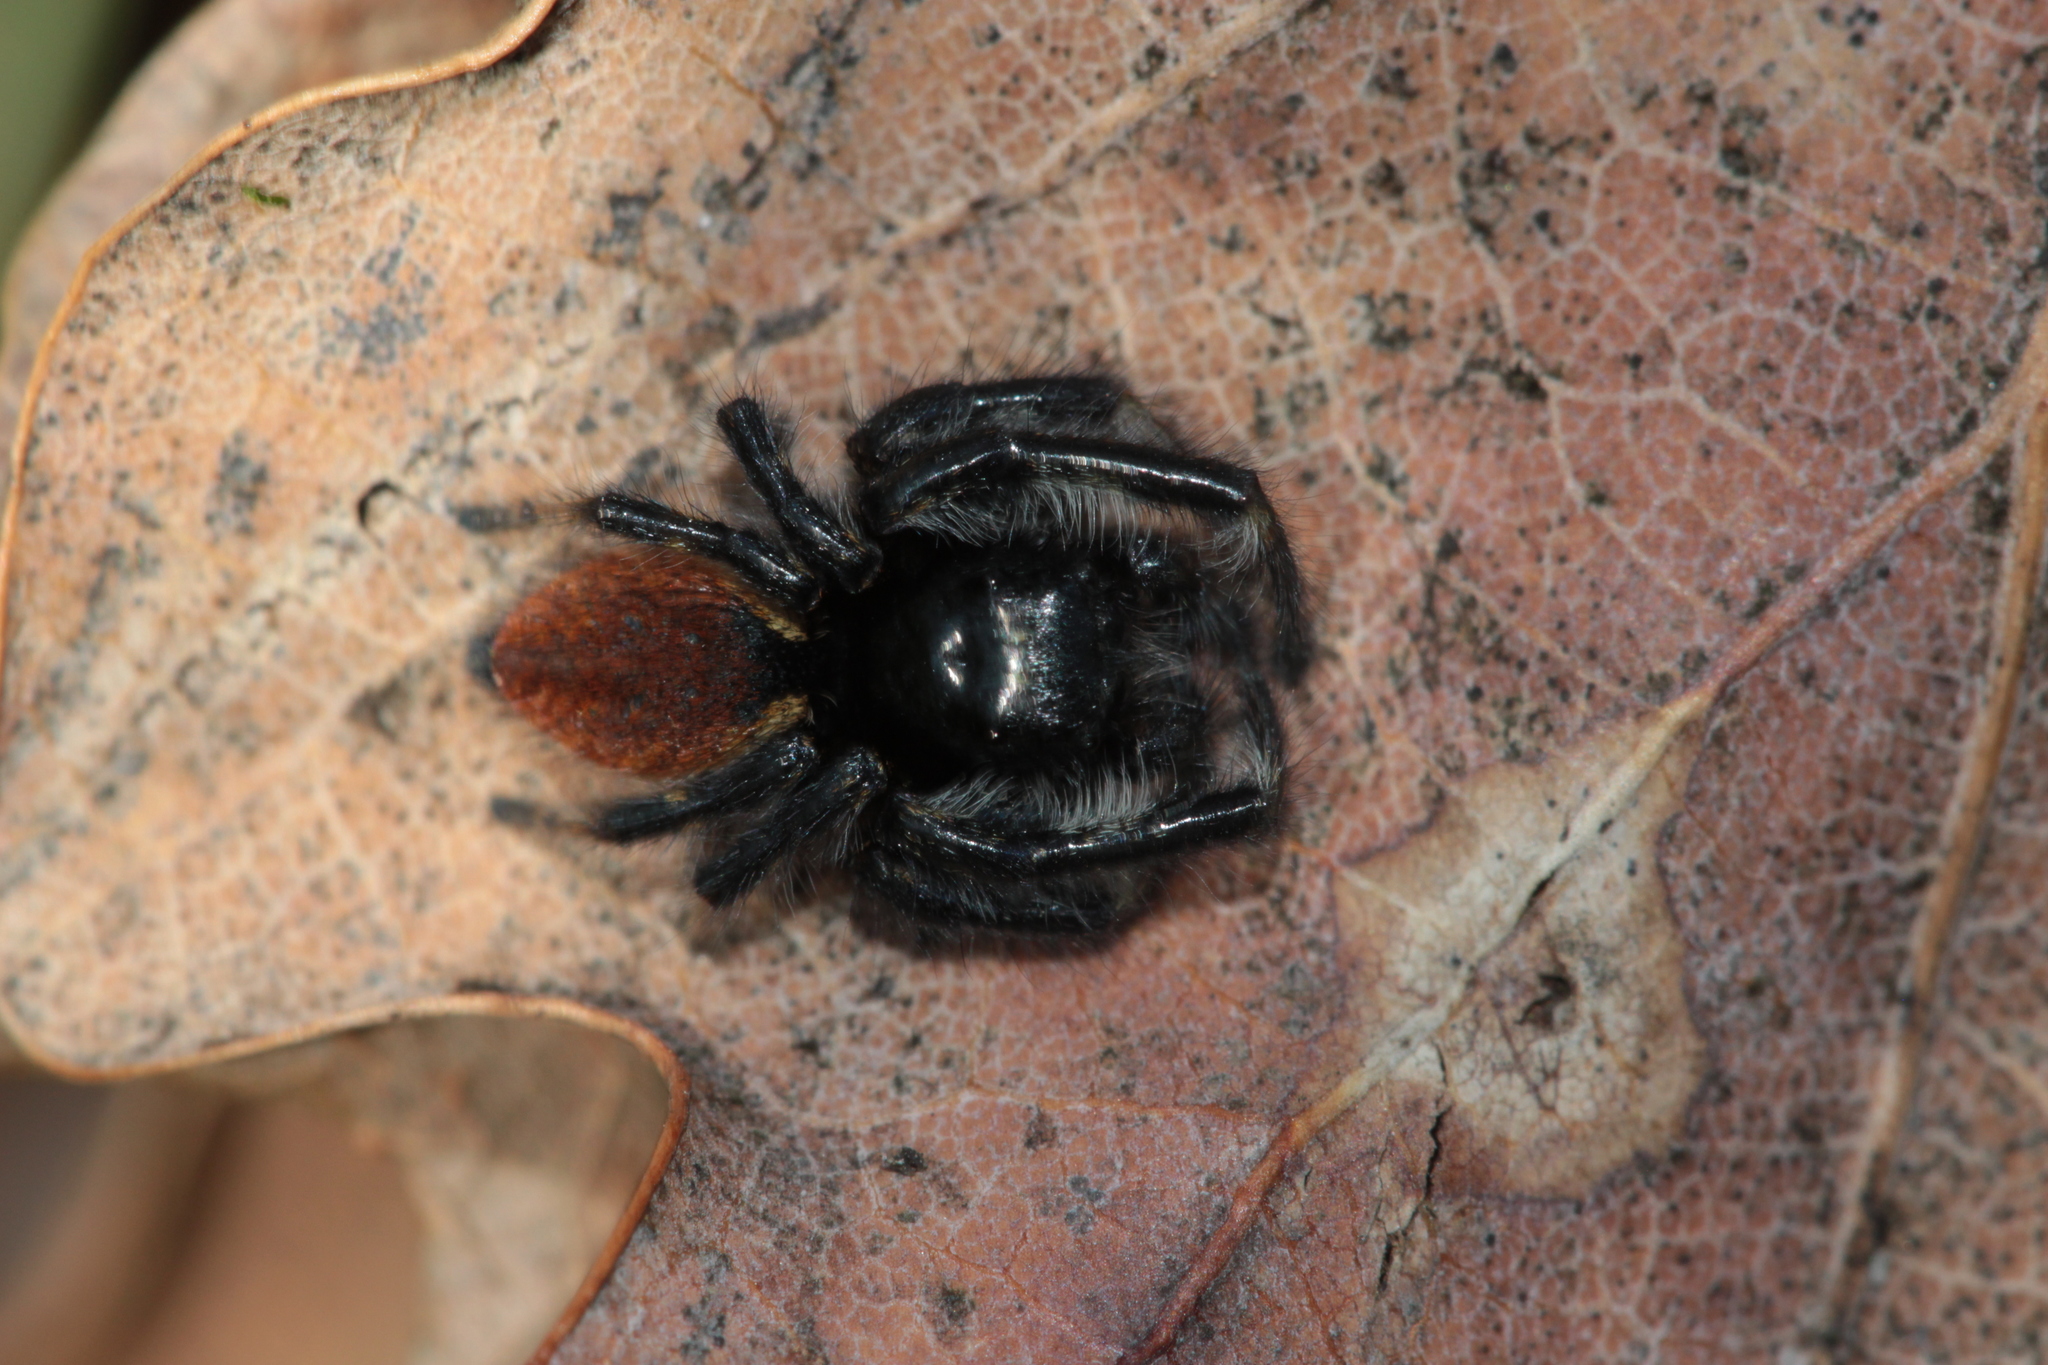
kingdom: Animalia
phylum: Arthropoda
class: Arachnida
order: Araneae
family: Salticidae
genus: Carrhotus
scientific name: Carrhotus xanthogramma
